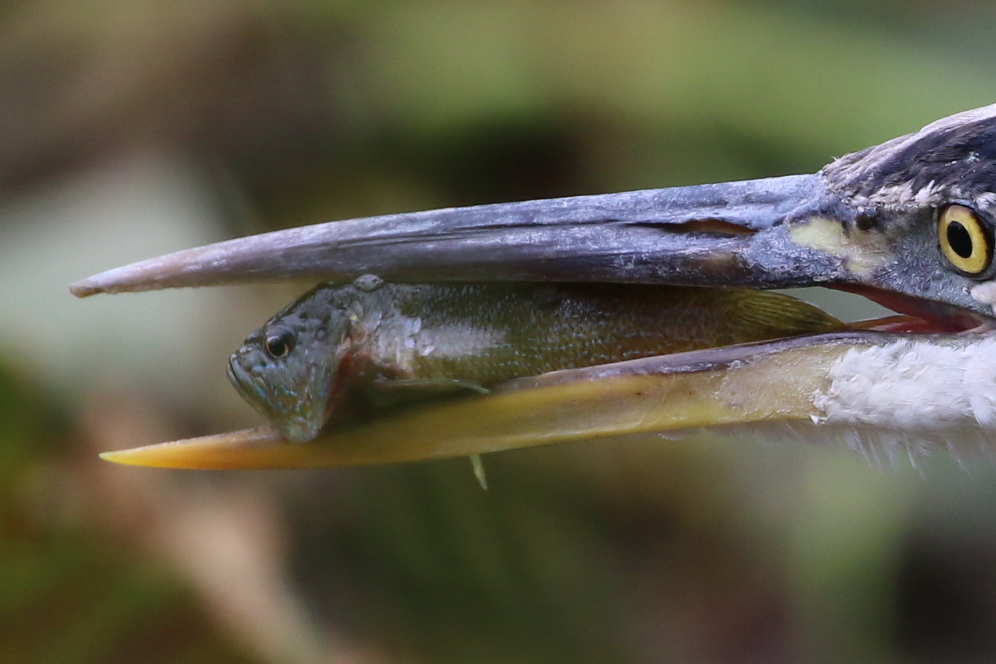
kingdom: Animalia
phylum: Chordata
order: Perciformes
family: Centrarchidae
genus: Lepomis
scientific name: Lepomis cyanellus
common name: Green sunfish
